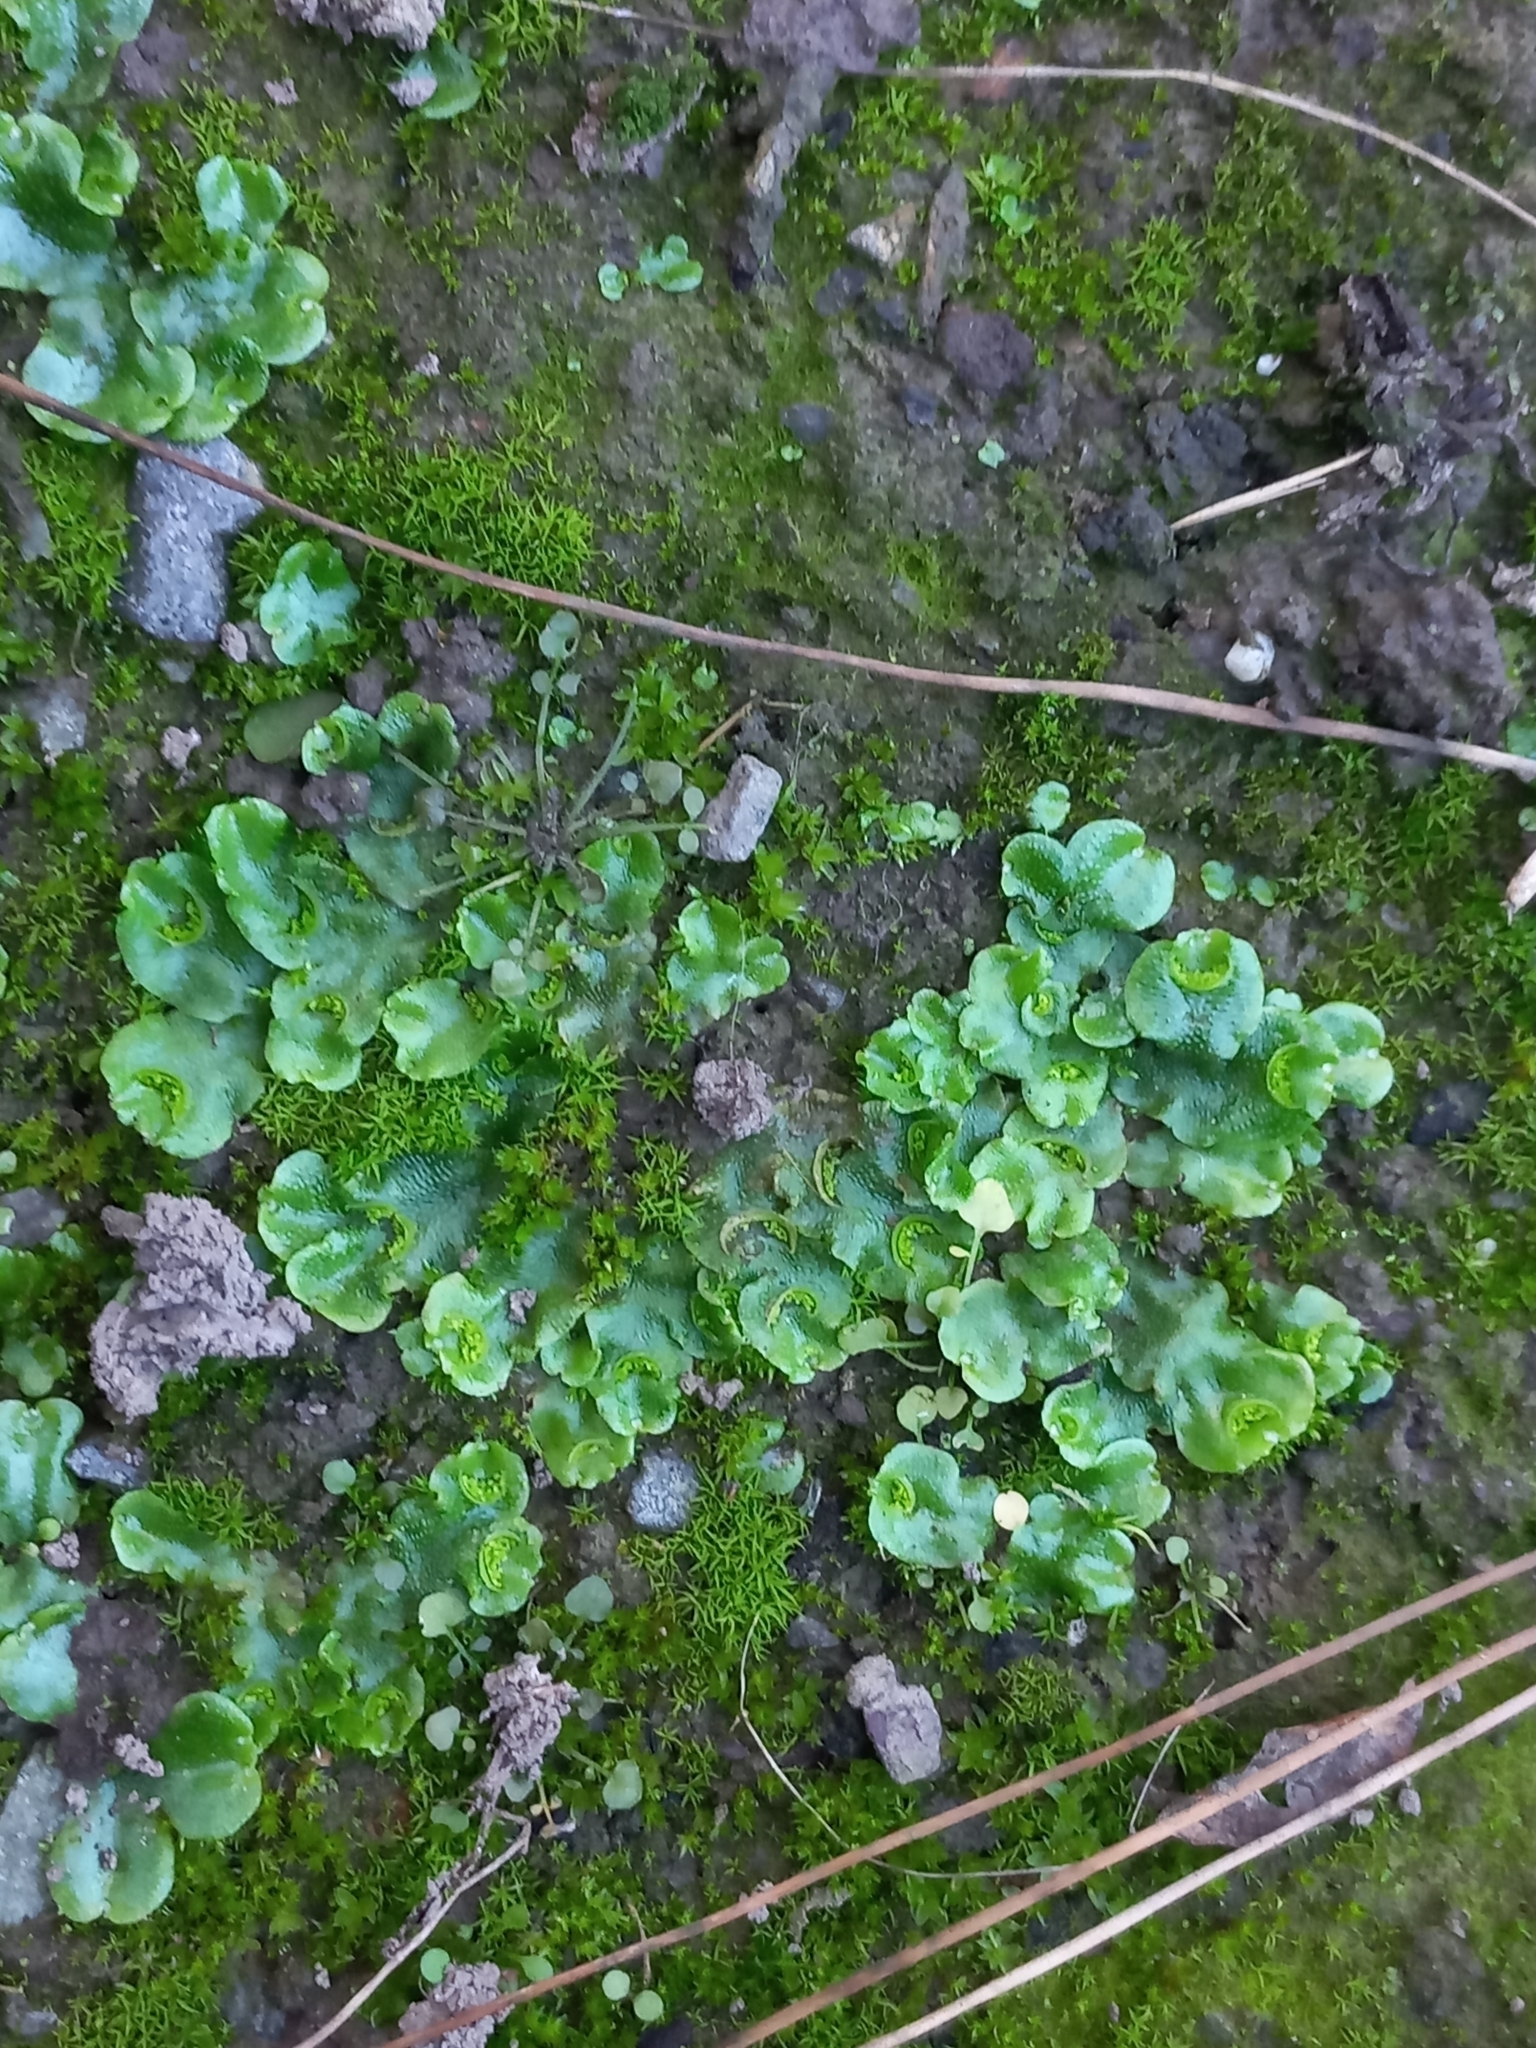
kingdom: Plantae
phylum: Marchantiophyta
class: Marchantiopsida
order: Lunulariales
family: Lunulariaceae
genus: Lunularia
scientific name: Lunularia cruciata
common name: Crescent-cup liverwort
